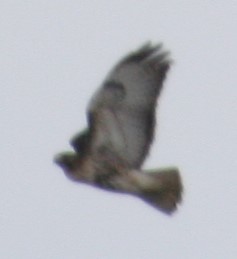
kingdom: Animalia
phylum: Chordata
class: Aves
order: Accipitriformes
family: Accipitridae
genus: Buteo
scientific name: Buteo jamaicensis
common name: Red-tailed hawk
